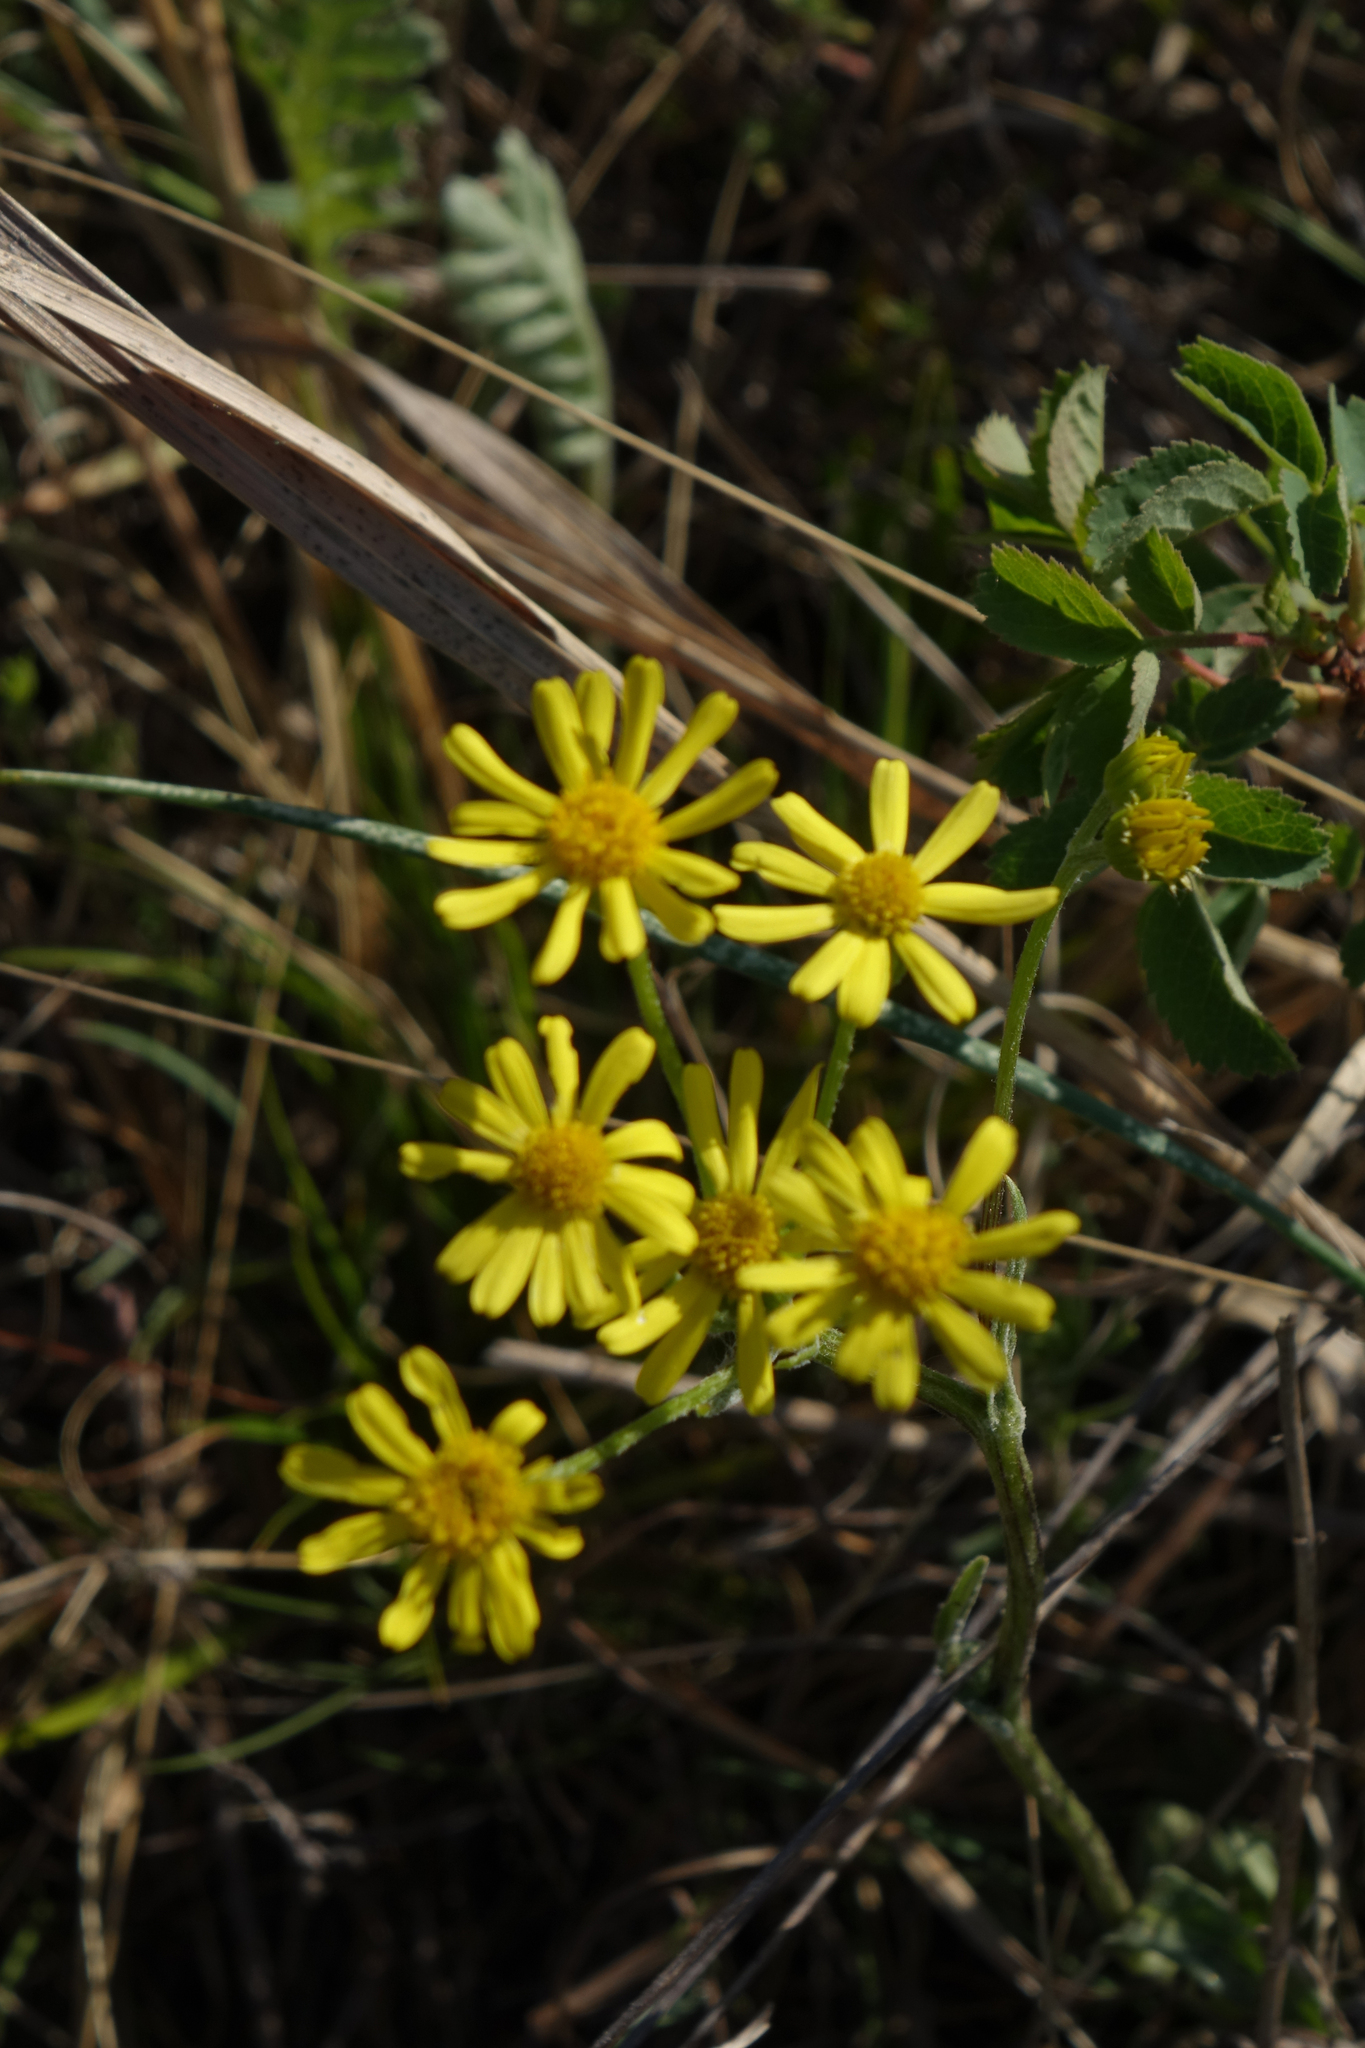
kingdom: Plantae
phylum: Tracheophyta
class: Magnoliopsida
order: Asterales
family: Asteraceae
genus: Tephroseris
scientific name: Tephroseris integrifolia
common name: Field fleawort
